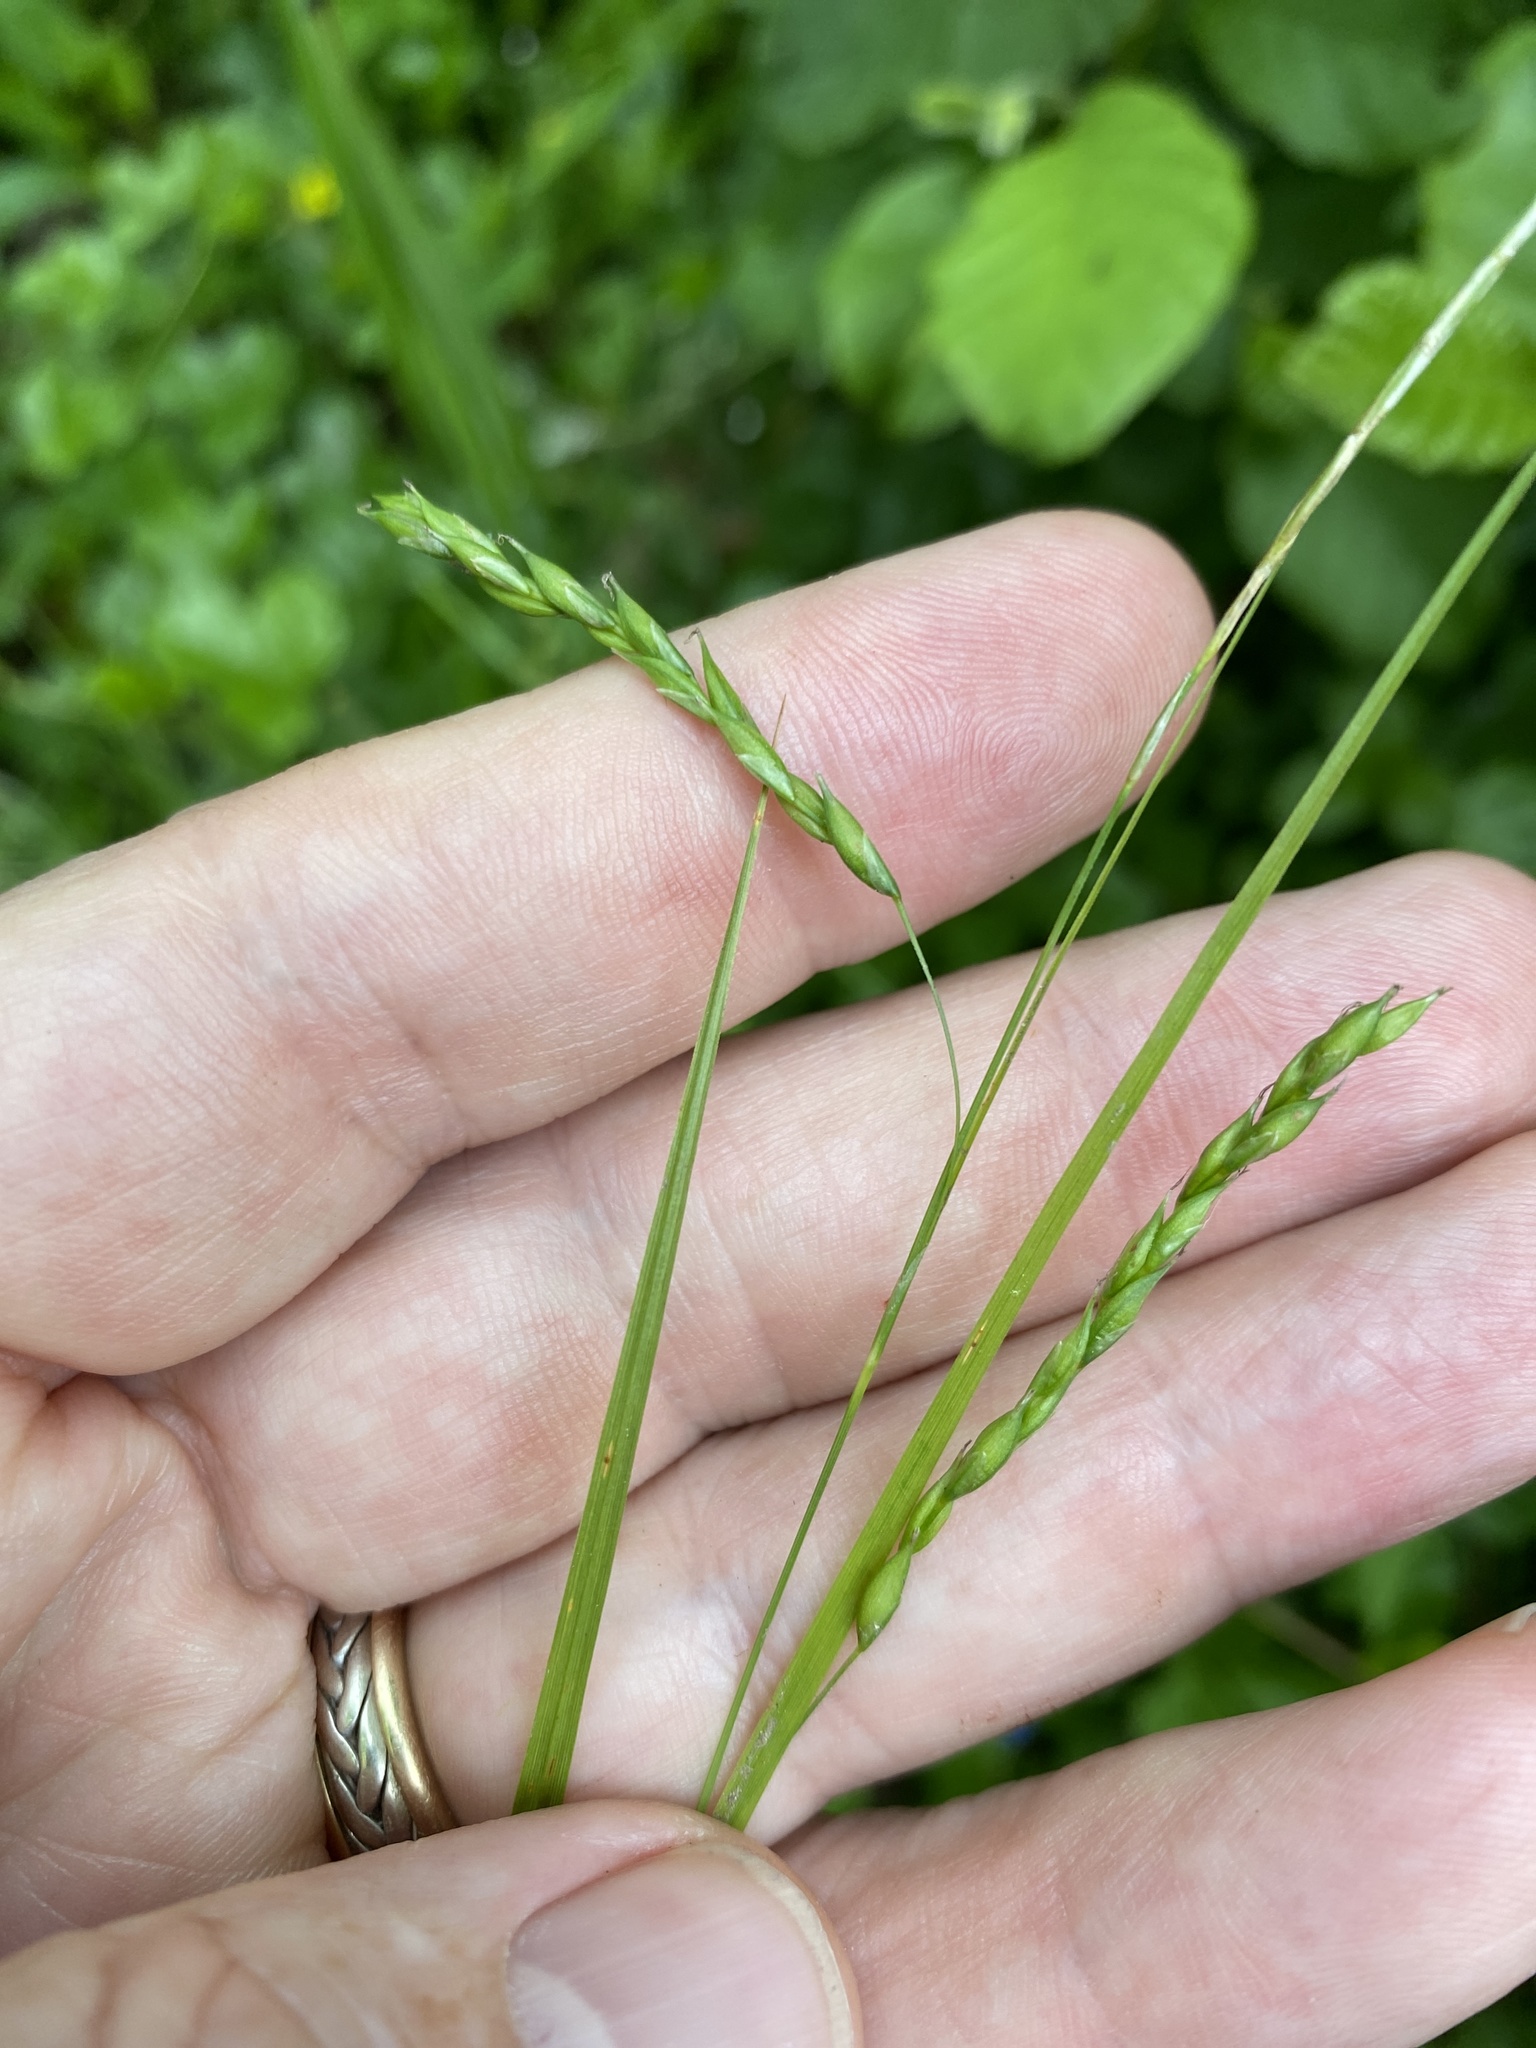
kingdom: Plantae
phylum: Tracheophyta
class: Liliopsida
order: Poales
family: Cyperaceae
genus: Carex
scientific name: Carex debilis
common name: White-edge sedge
